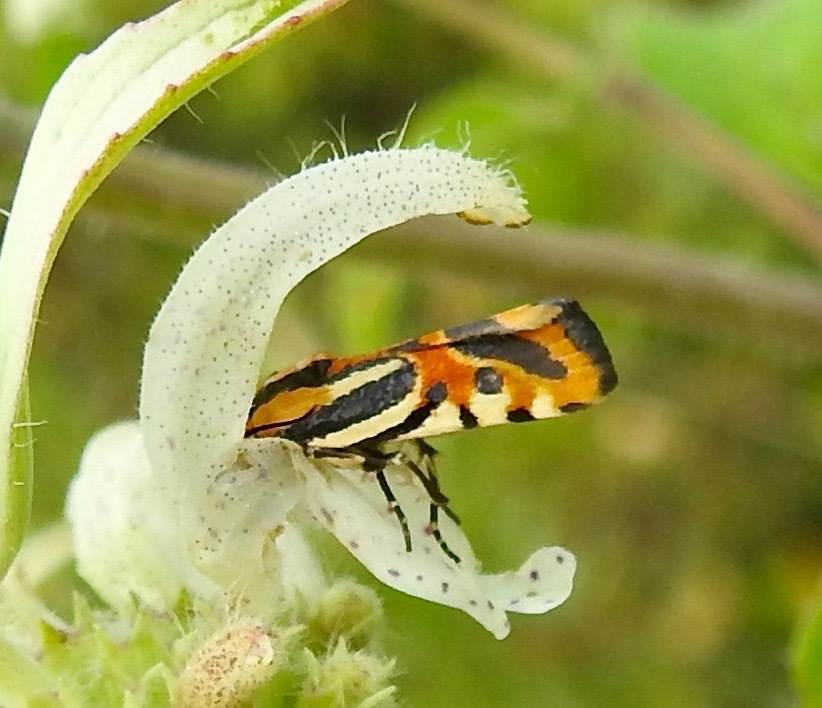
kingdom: Animalia
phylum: Arthropoda
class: Insecta
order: Lepidoptera
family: Noctuidae
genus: Acontia
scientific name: Acontia onagrus
